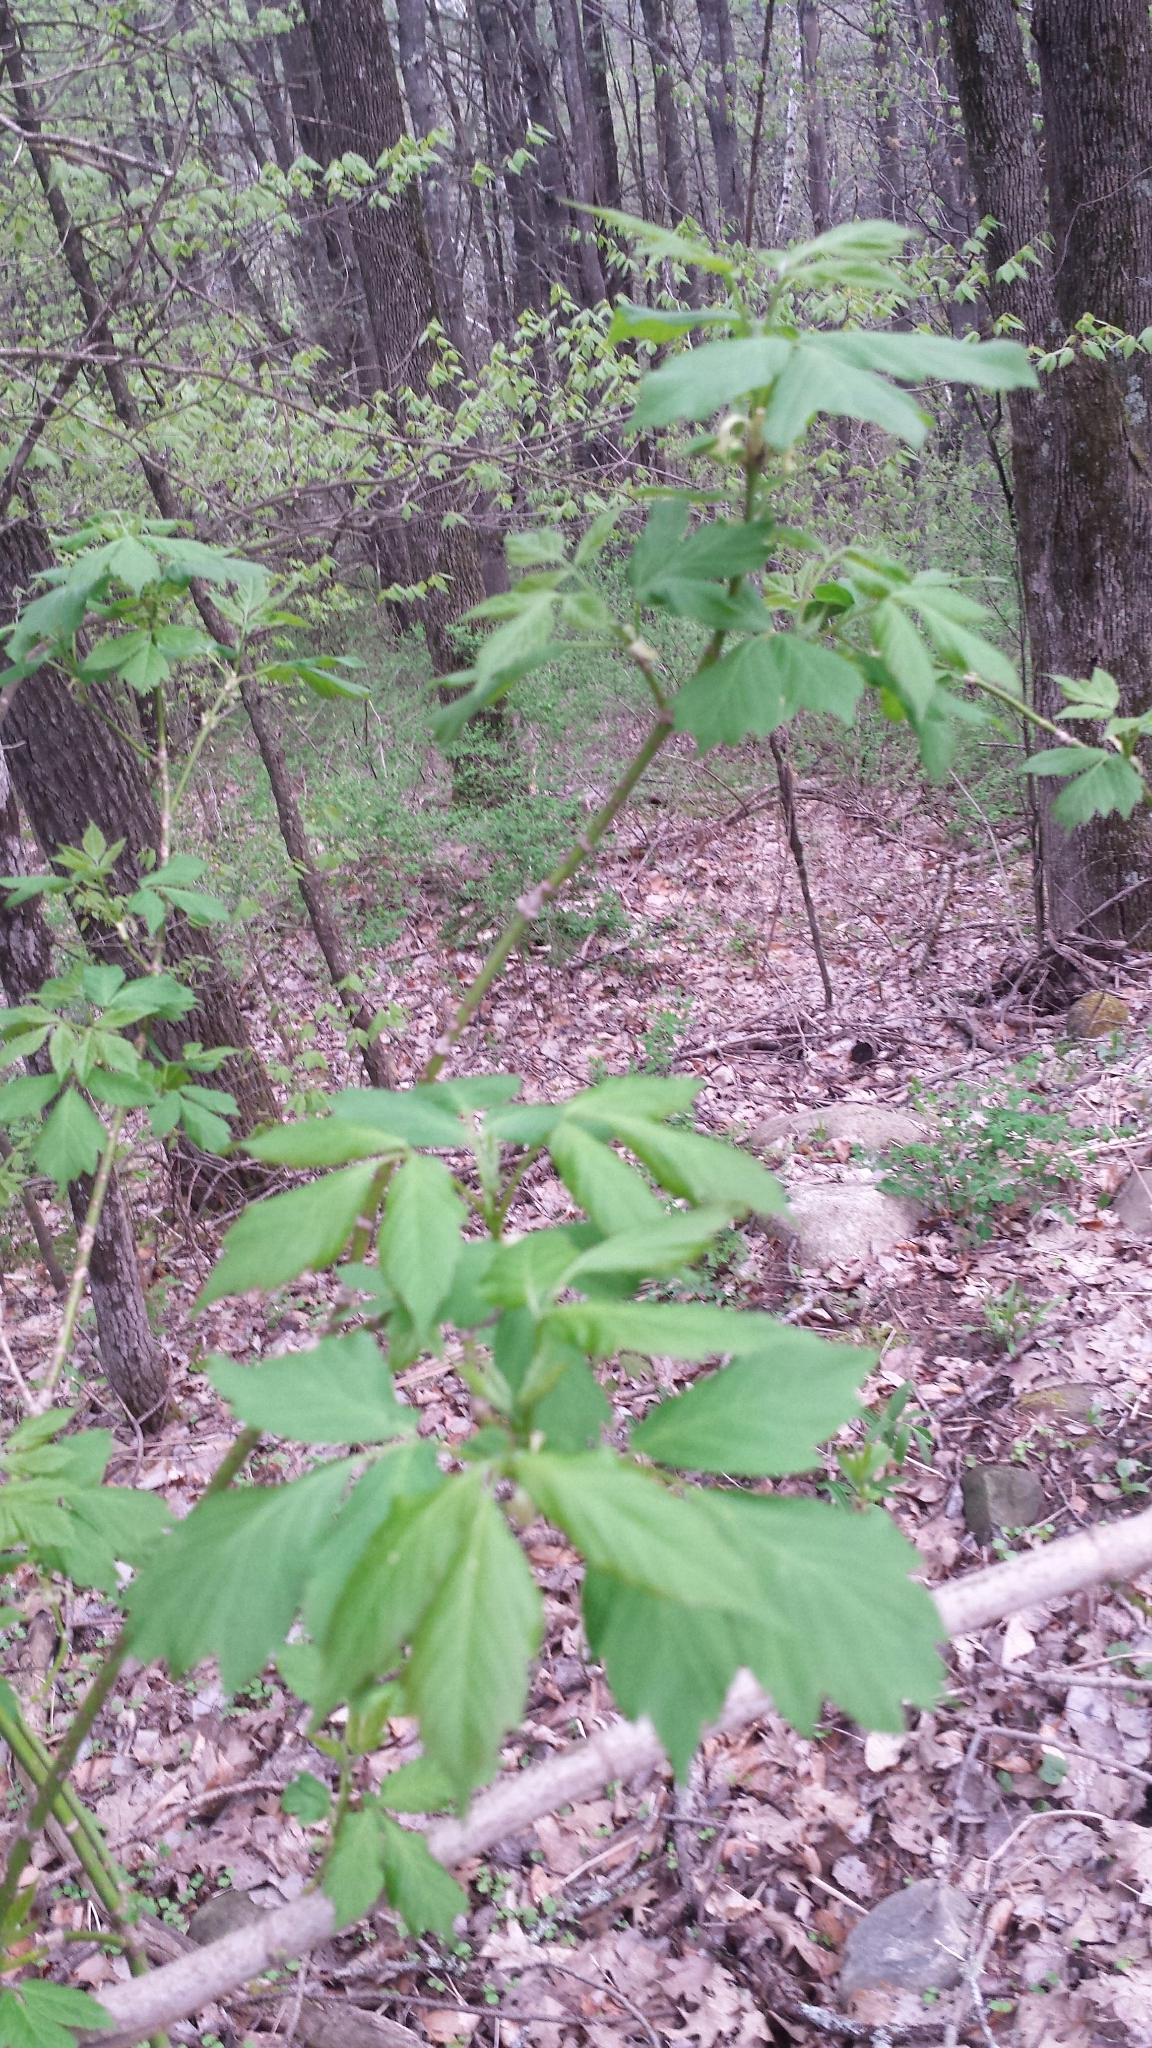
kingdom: Plantae
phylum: Tracheophyta
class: Magnoliopsida
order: Sapindales
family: Sapindaceae
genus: Acer
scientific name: Acer negundo
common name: Ashleaf maple
